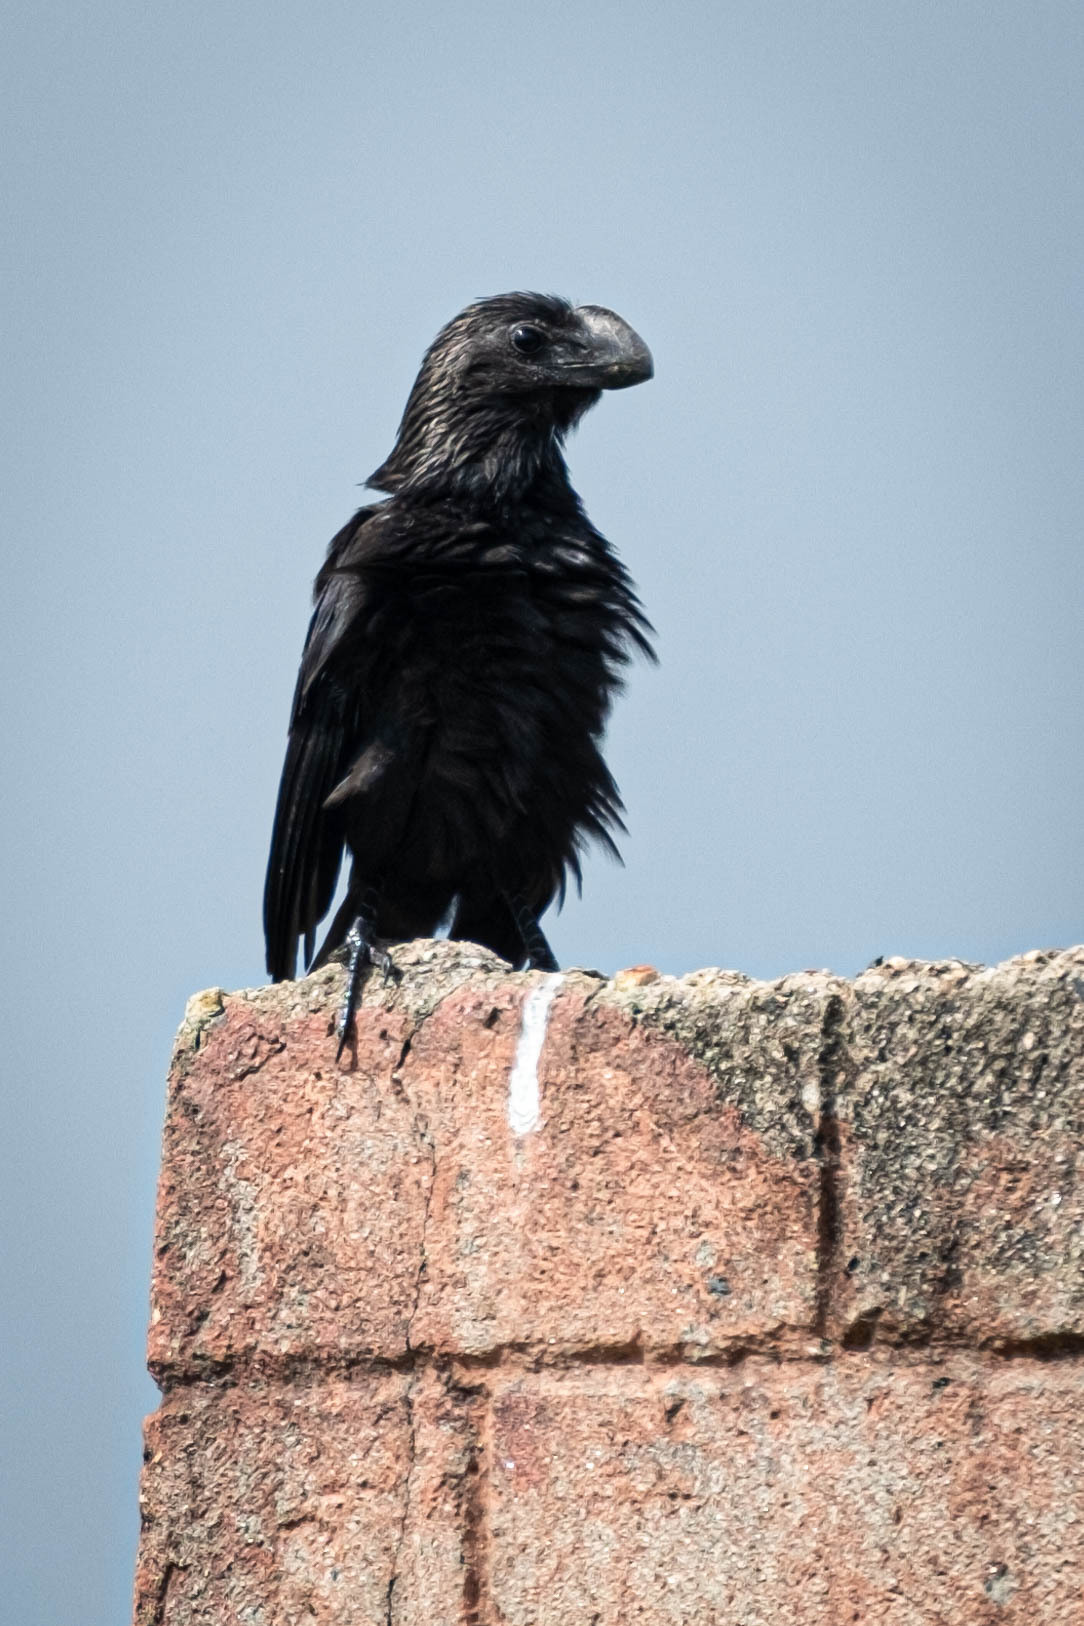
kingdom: Animalia
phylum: Chordata
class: Aves
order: Cuculiformes
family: Cuculidae
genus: Crotophaga
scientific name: Crotophaga ani
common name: Smooth-billed ani
